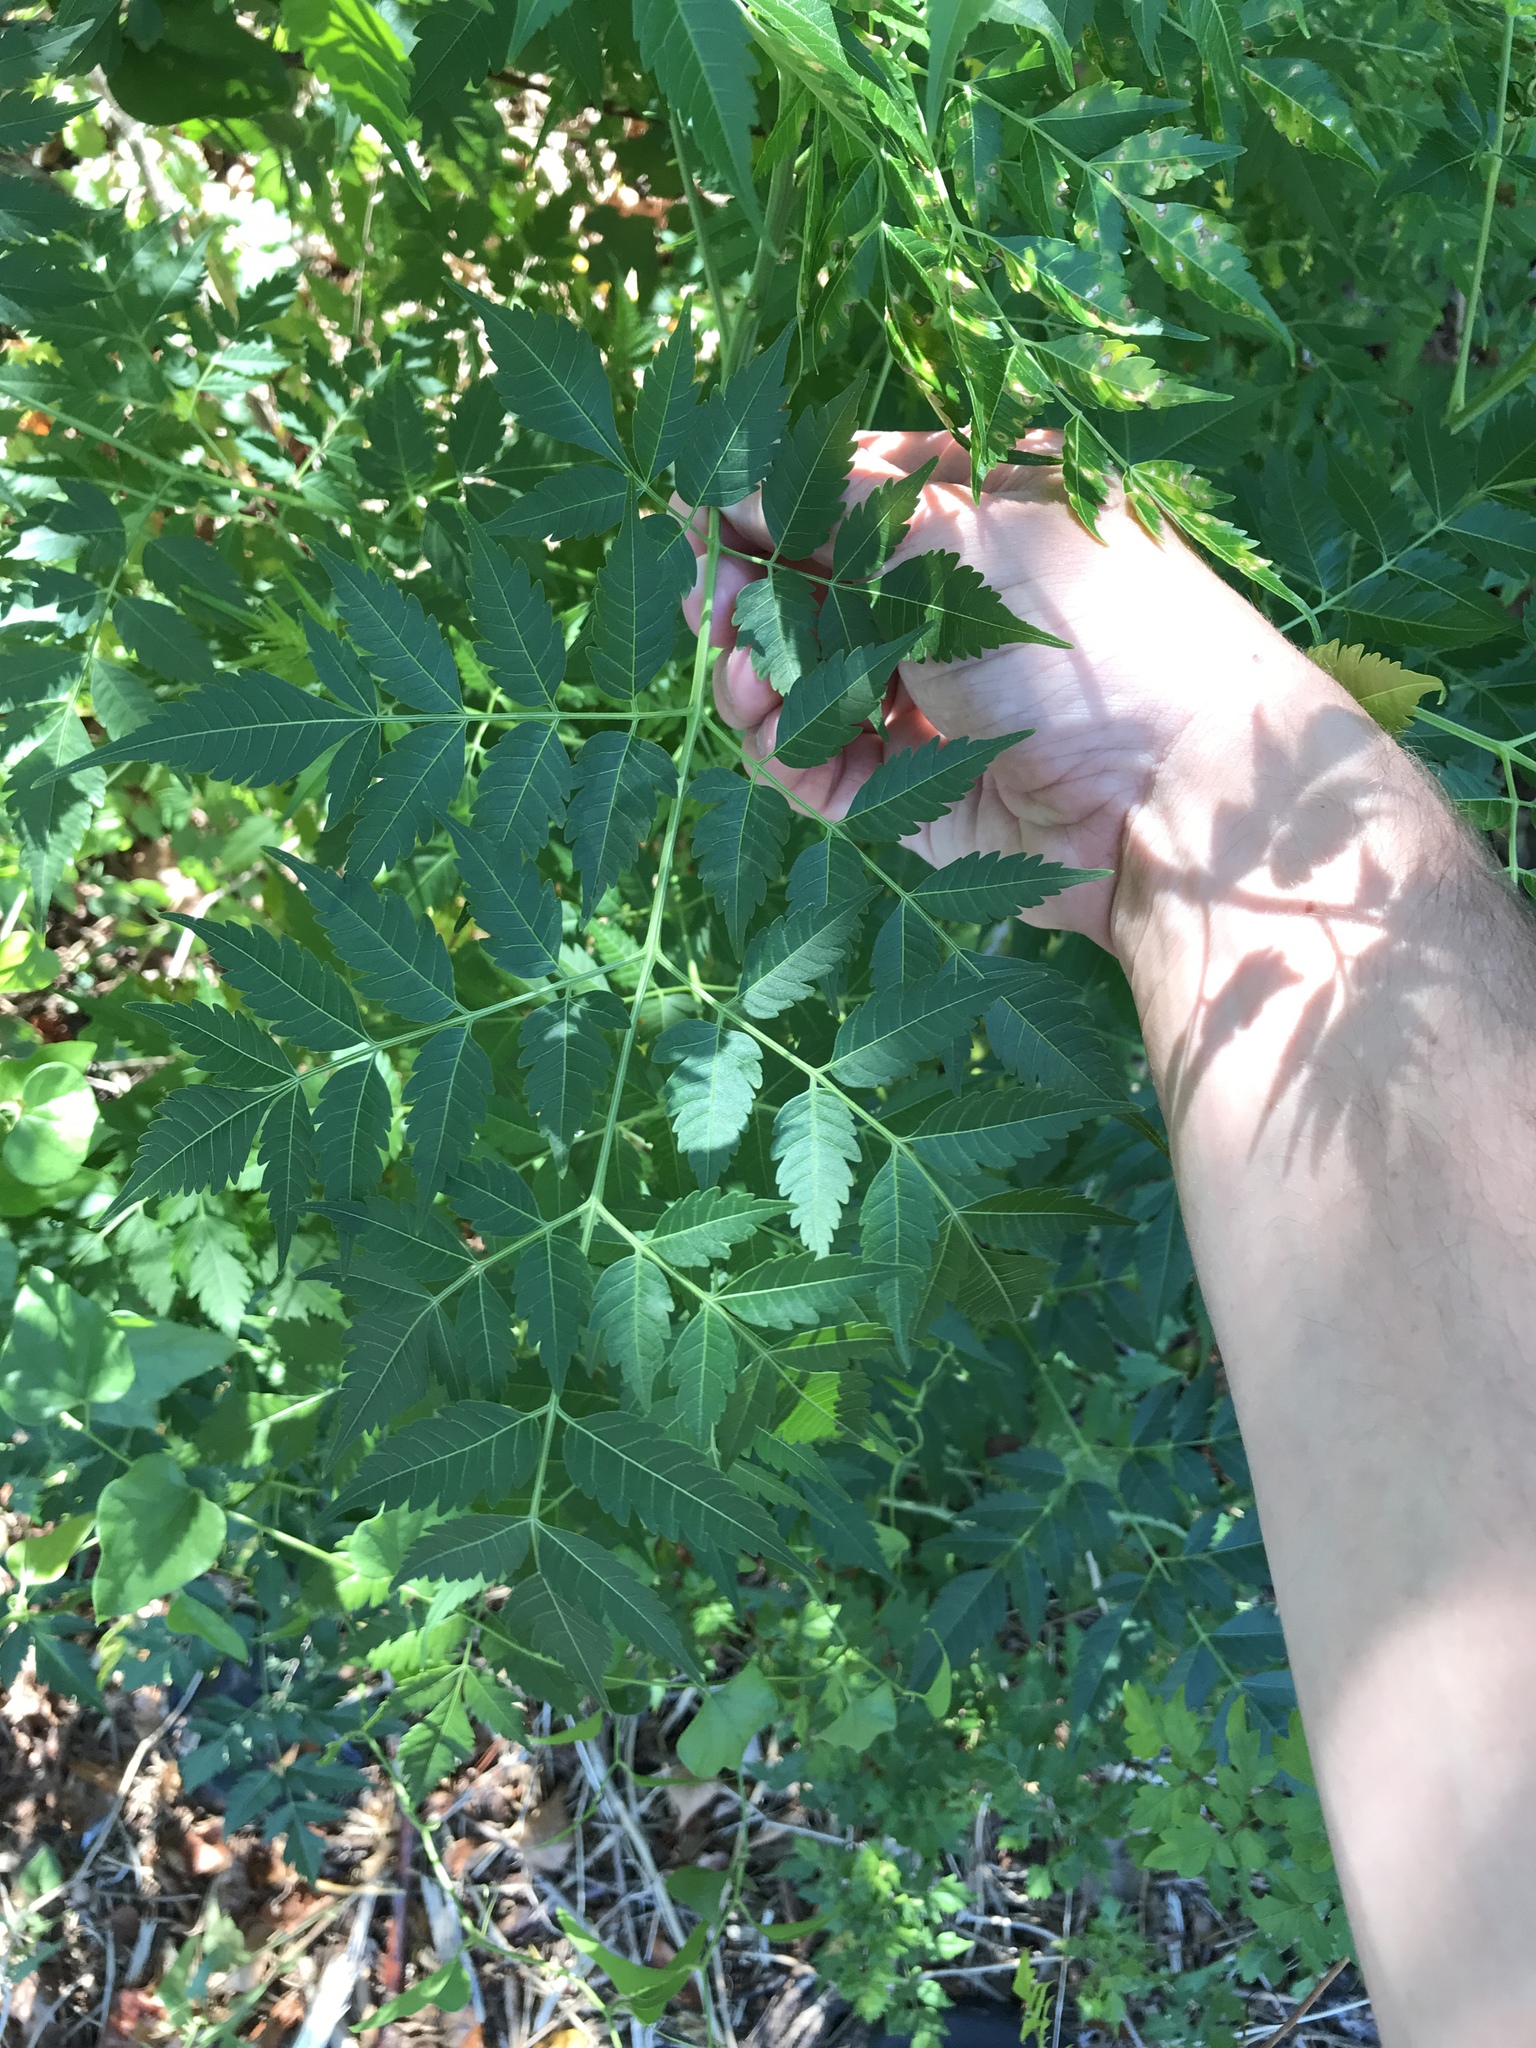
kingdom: Plantae
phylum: Tracheophyta
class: Magnoliopsida
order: Sapindales
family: Meliaceae
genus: Melia
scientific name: Melia azedarach
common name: Chinaberrytree
